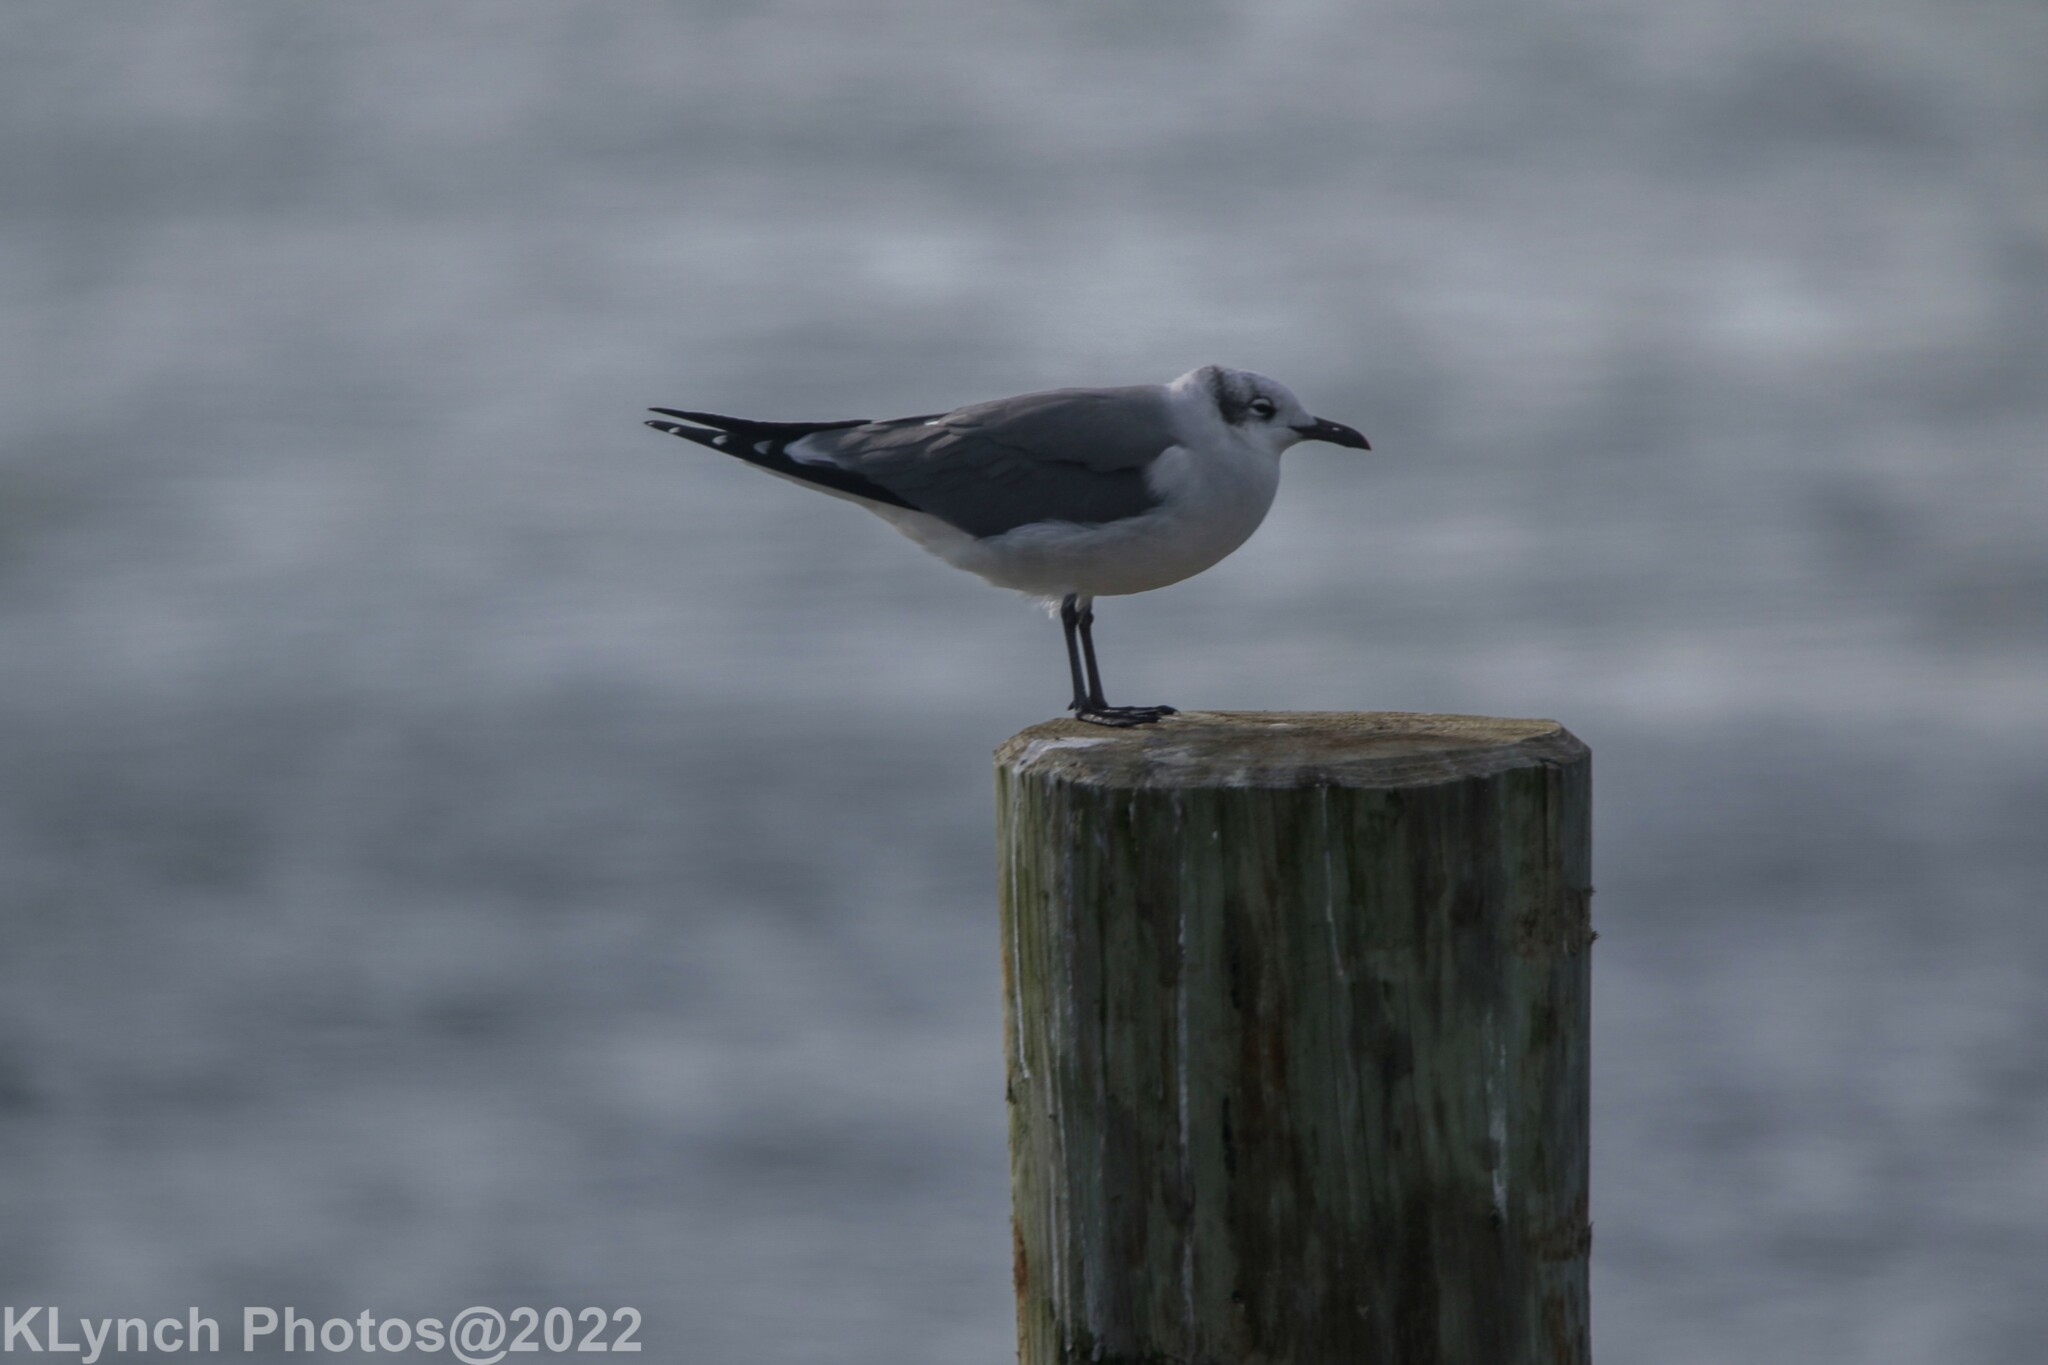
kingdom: Animalia
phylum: Chordata
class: Aves
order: Charadriiformes
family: Laridae
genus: Leucophaeus
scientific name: Leucophaeus atricilla
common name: Laughing gull
